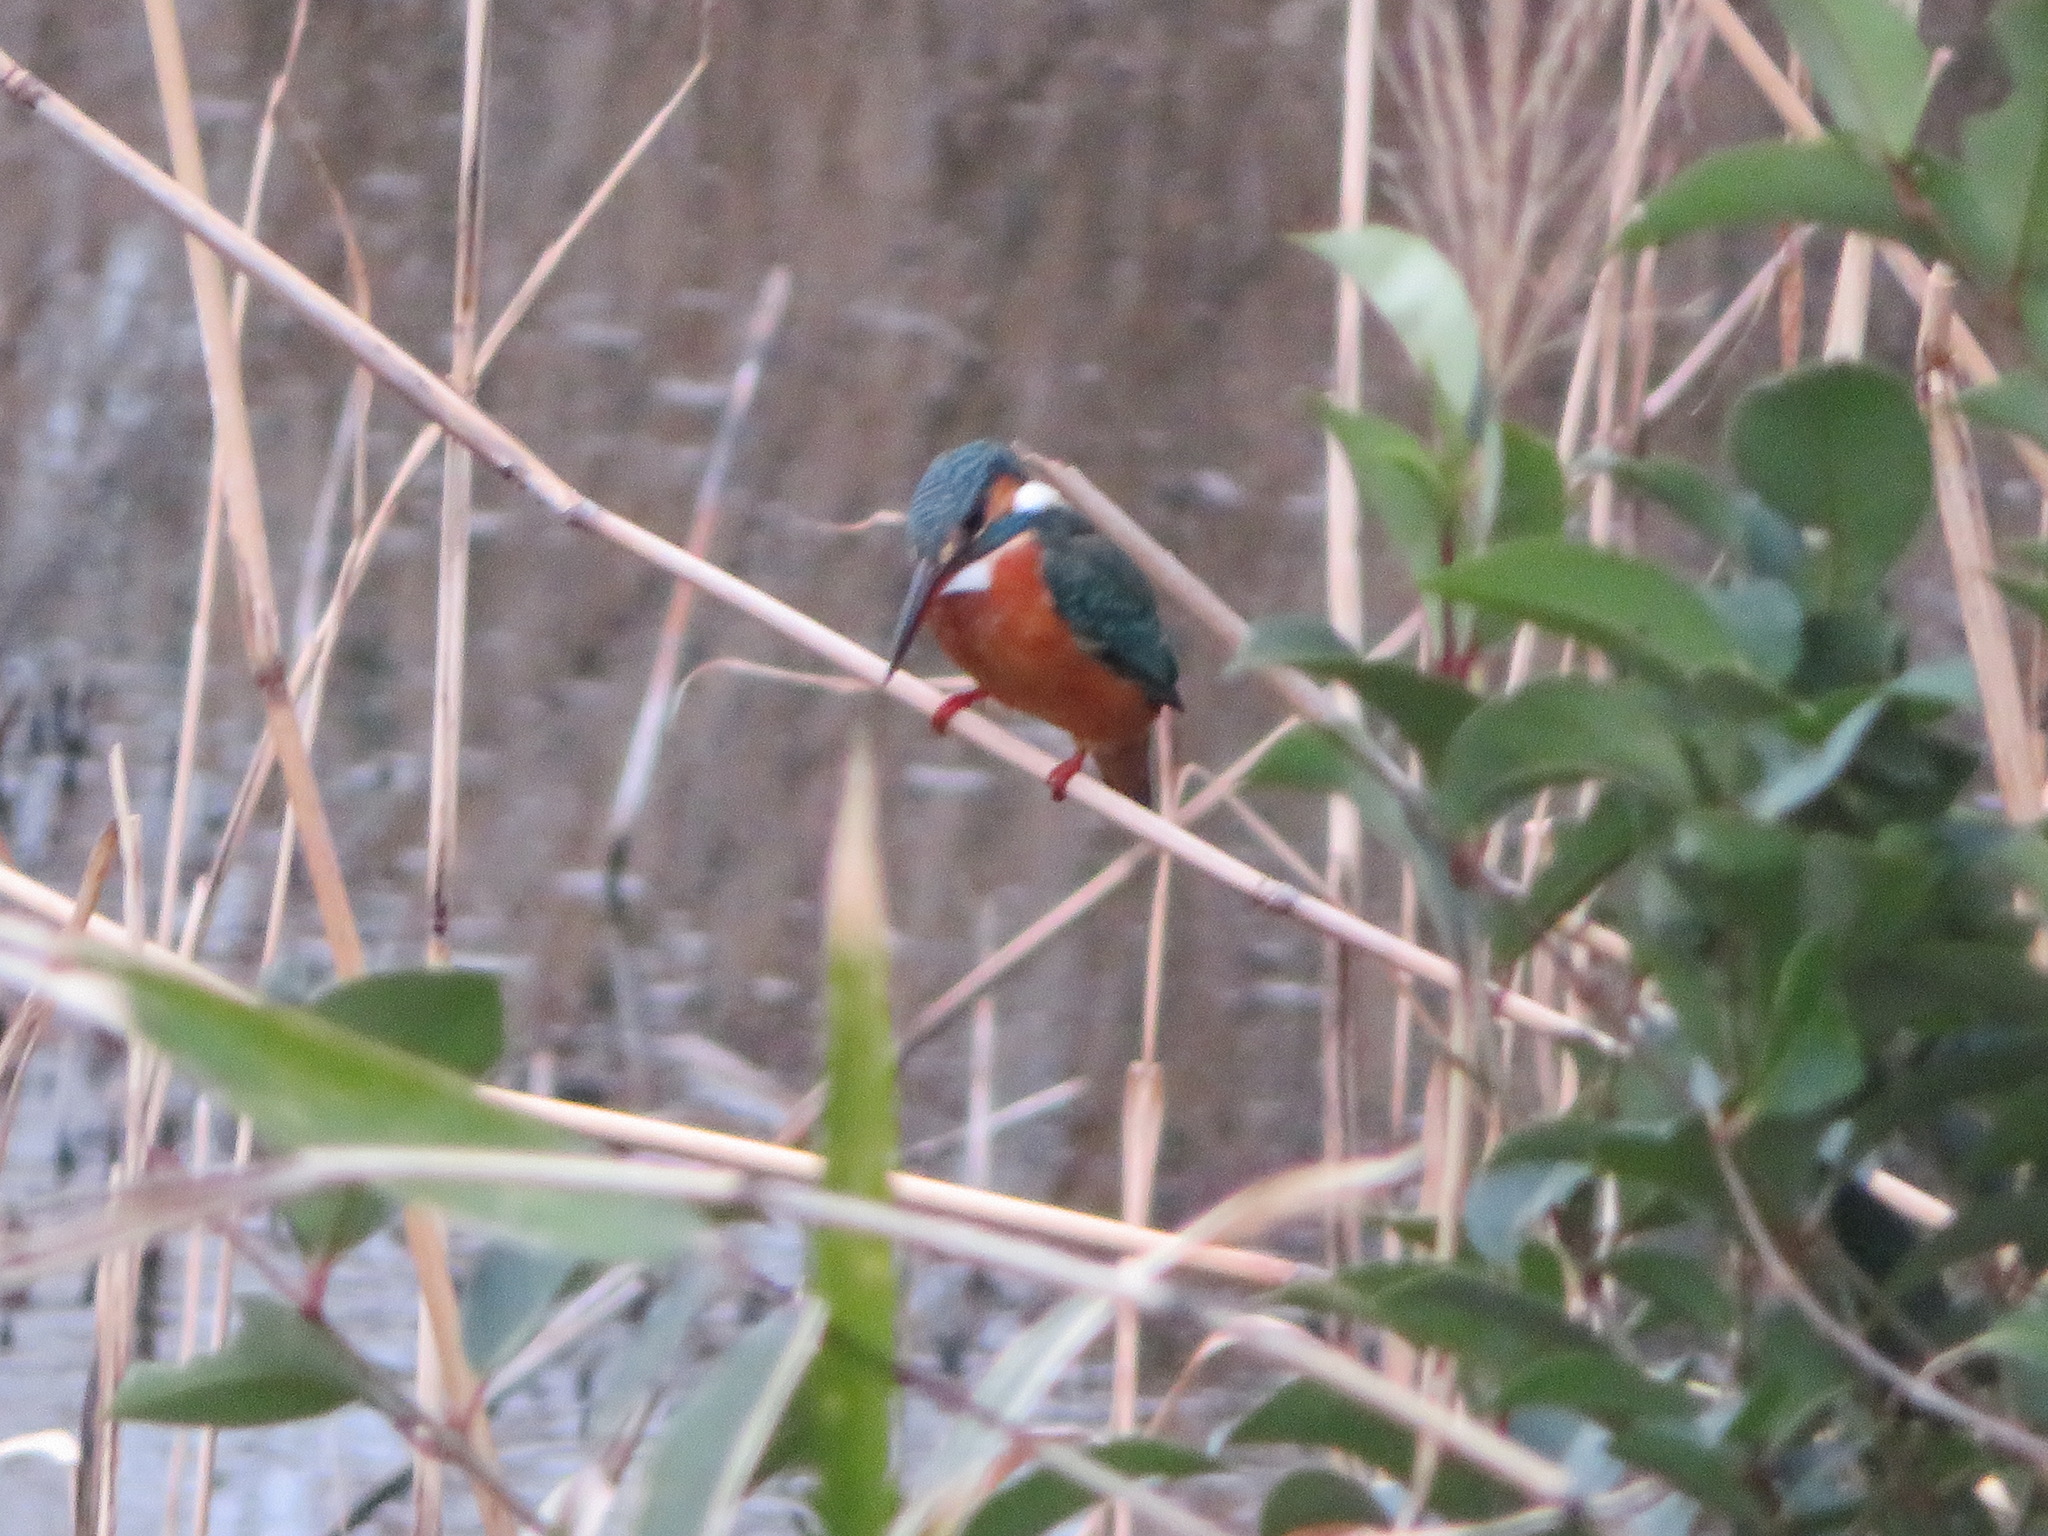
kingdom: Animalia
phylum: Chordata
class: Aves
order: Coraciiformes
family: Alcedinidae
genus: Alcedo
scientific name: Alcedo atthis
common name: Common kingfisher
